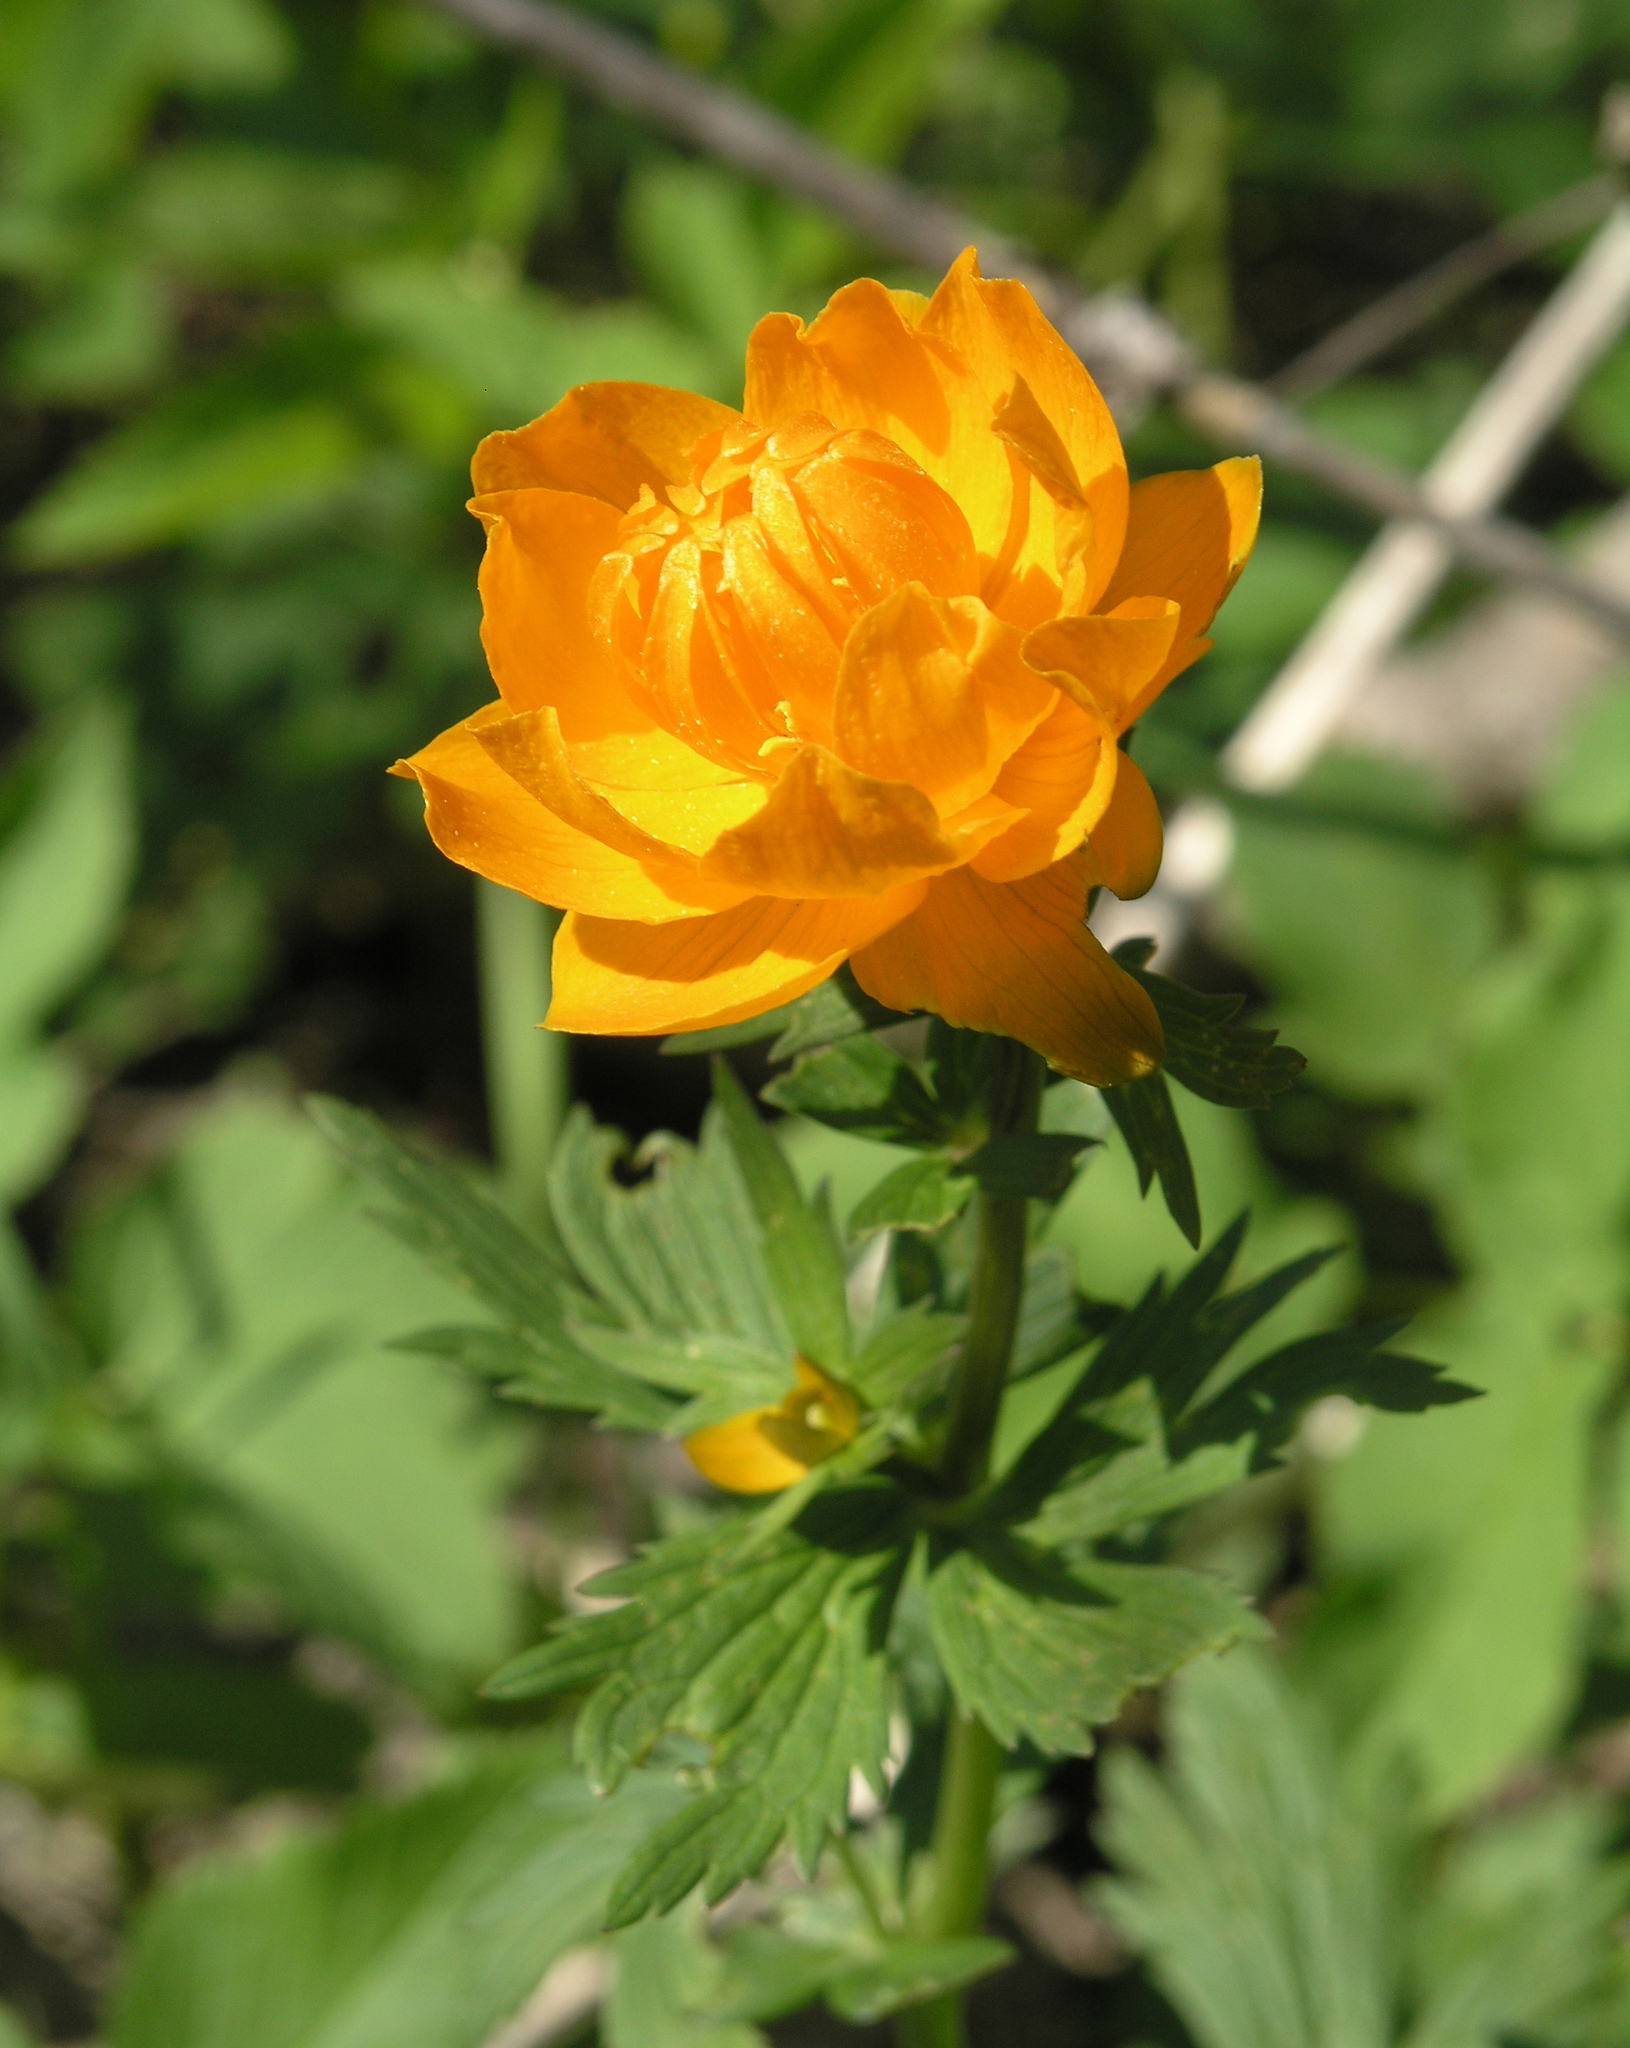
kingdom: Plantae
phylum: Tracheophyta
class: Magnoliopsida
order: Ranunculales
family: Ranunculaceae
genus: Trollius
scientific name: Trollius asiaticus
